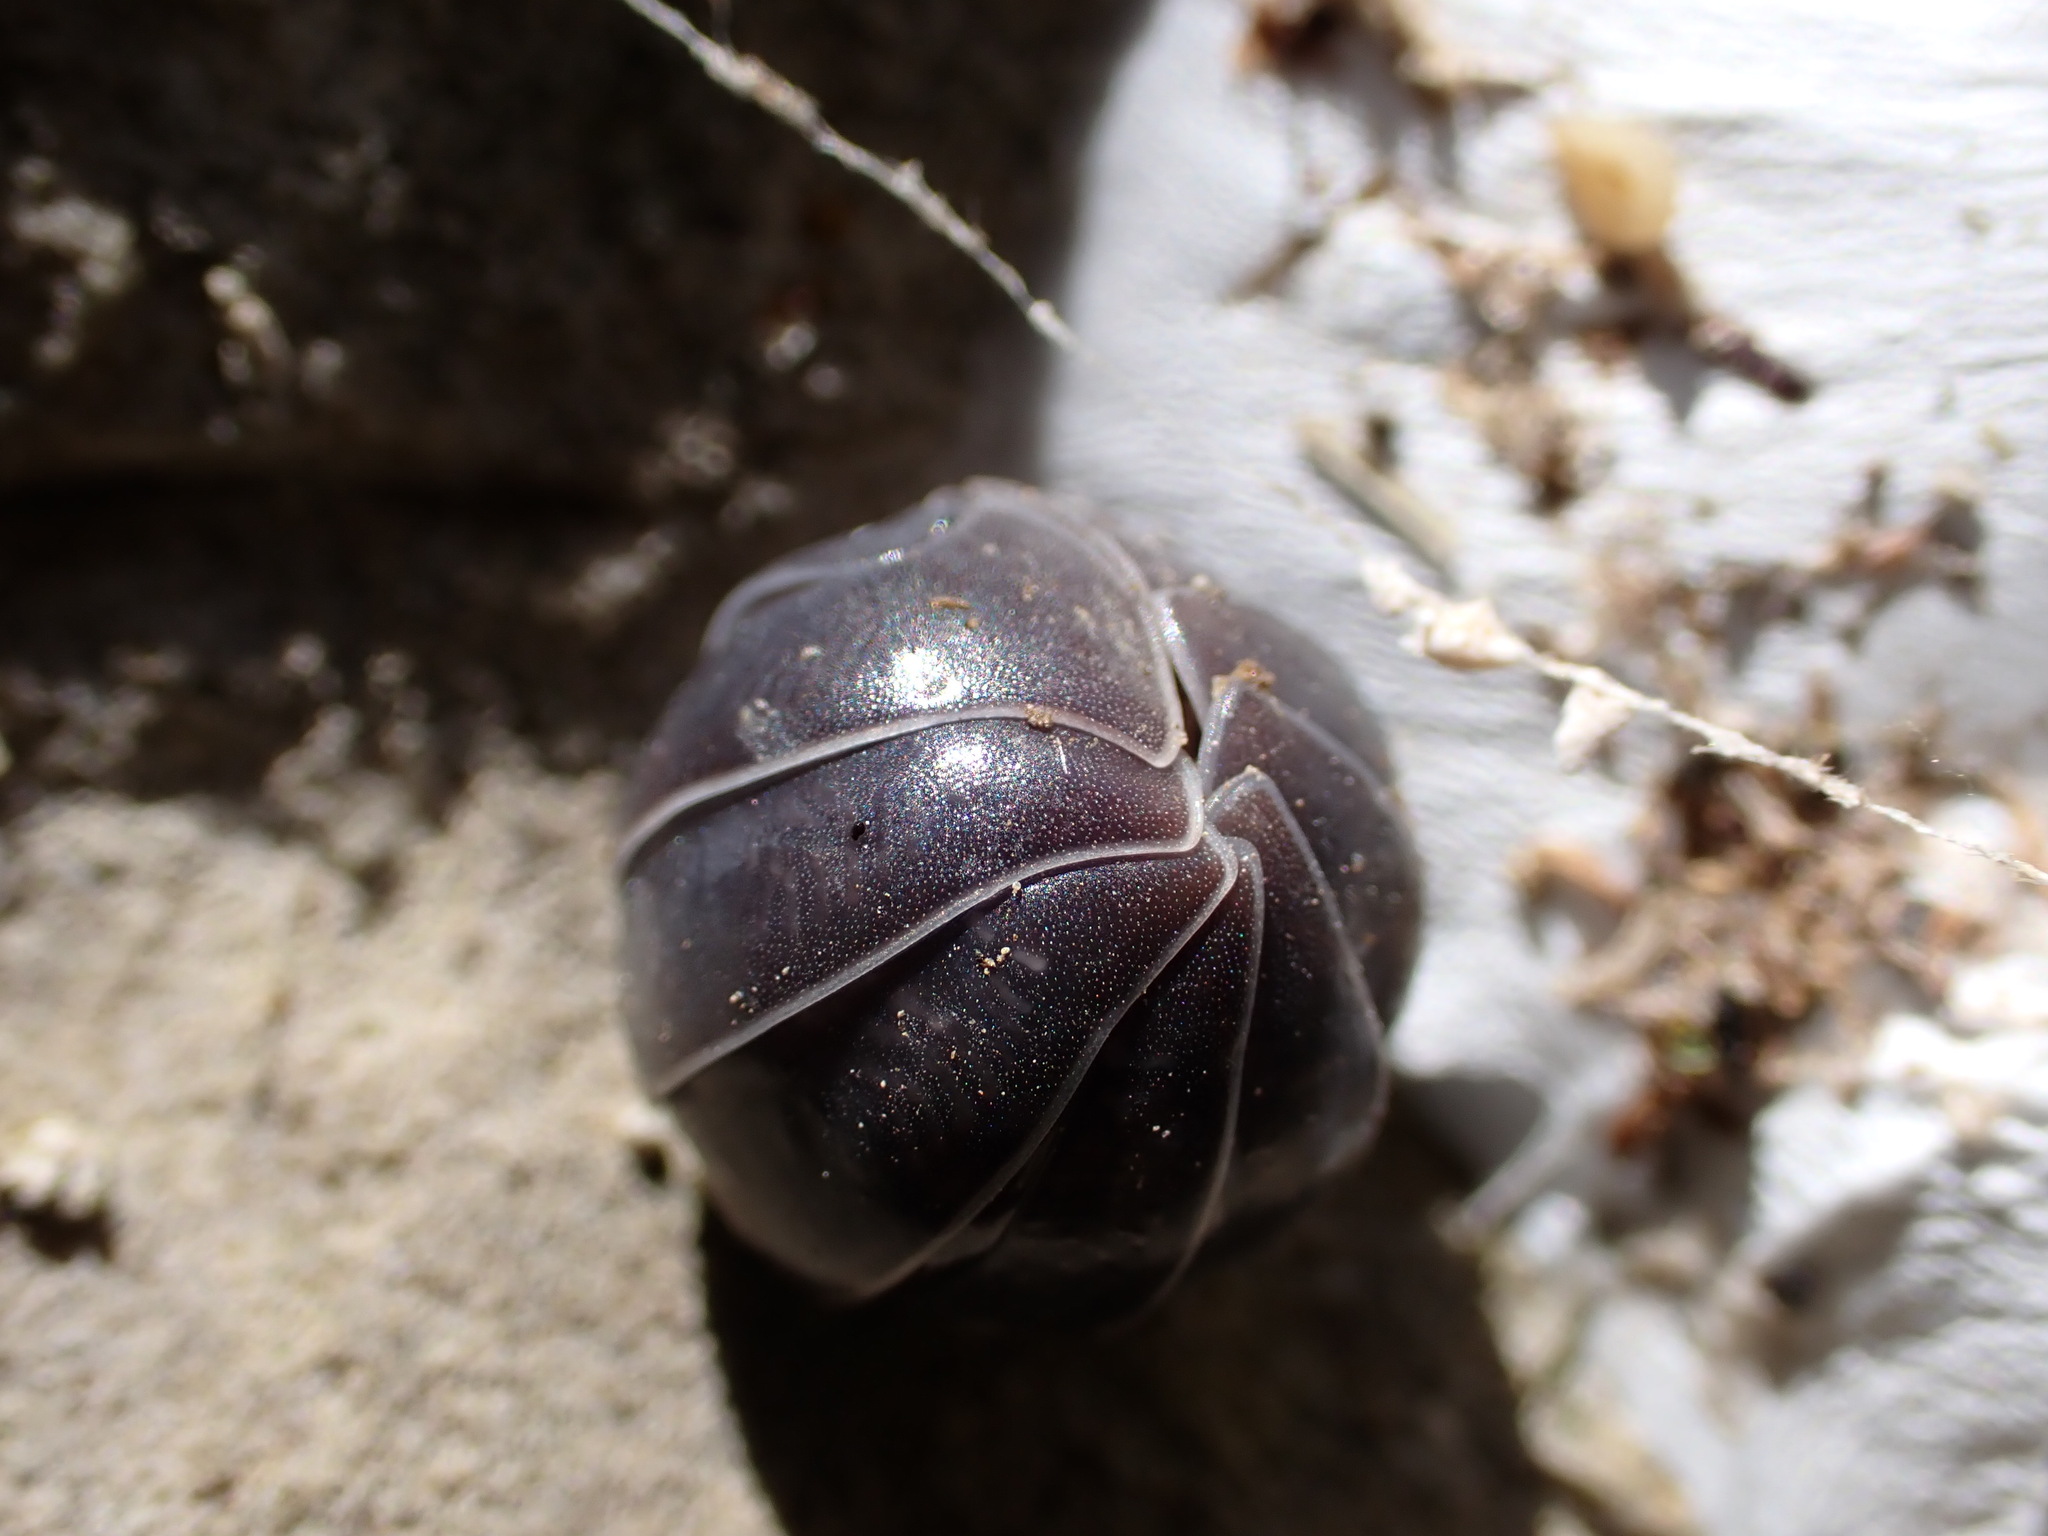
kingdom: Animalia
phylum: Arthropoda
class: Malacostraca
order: Isopoda
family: Armadillidiidae
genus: Armadillidium
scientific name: Armadillidium vulgare
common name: Common pill woodlouse
